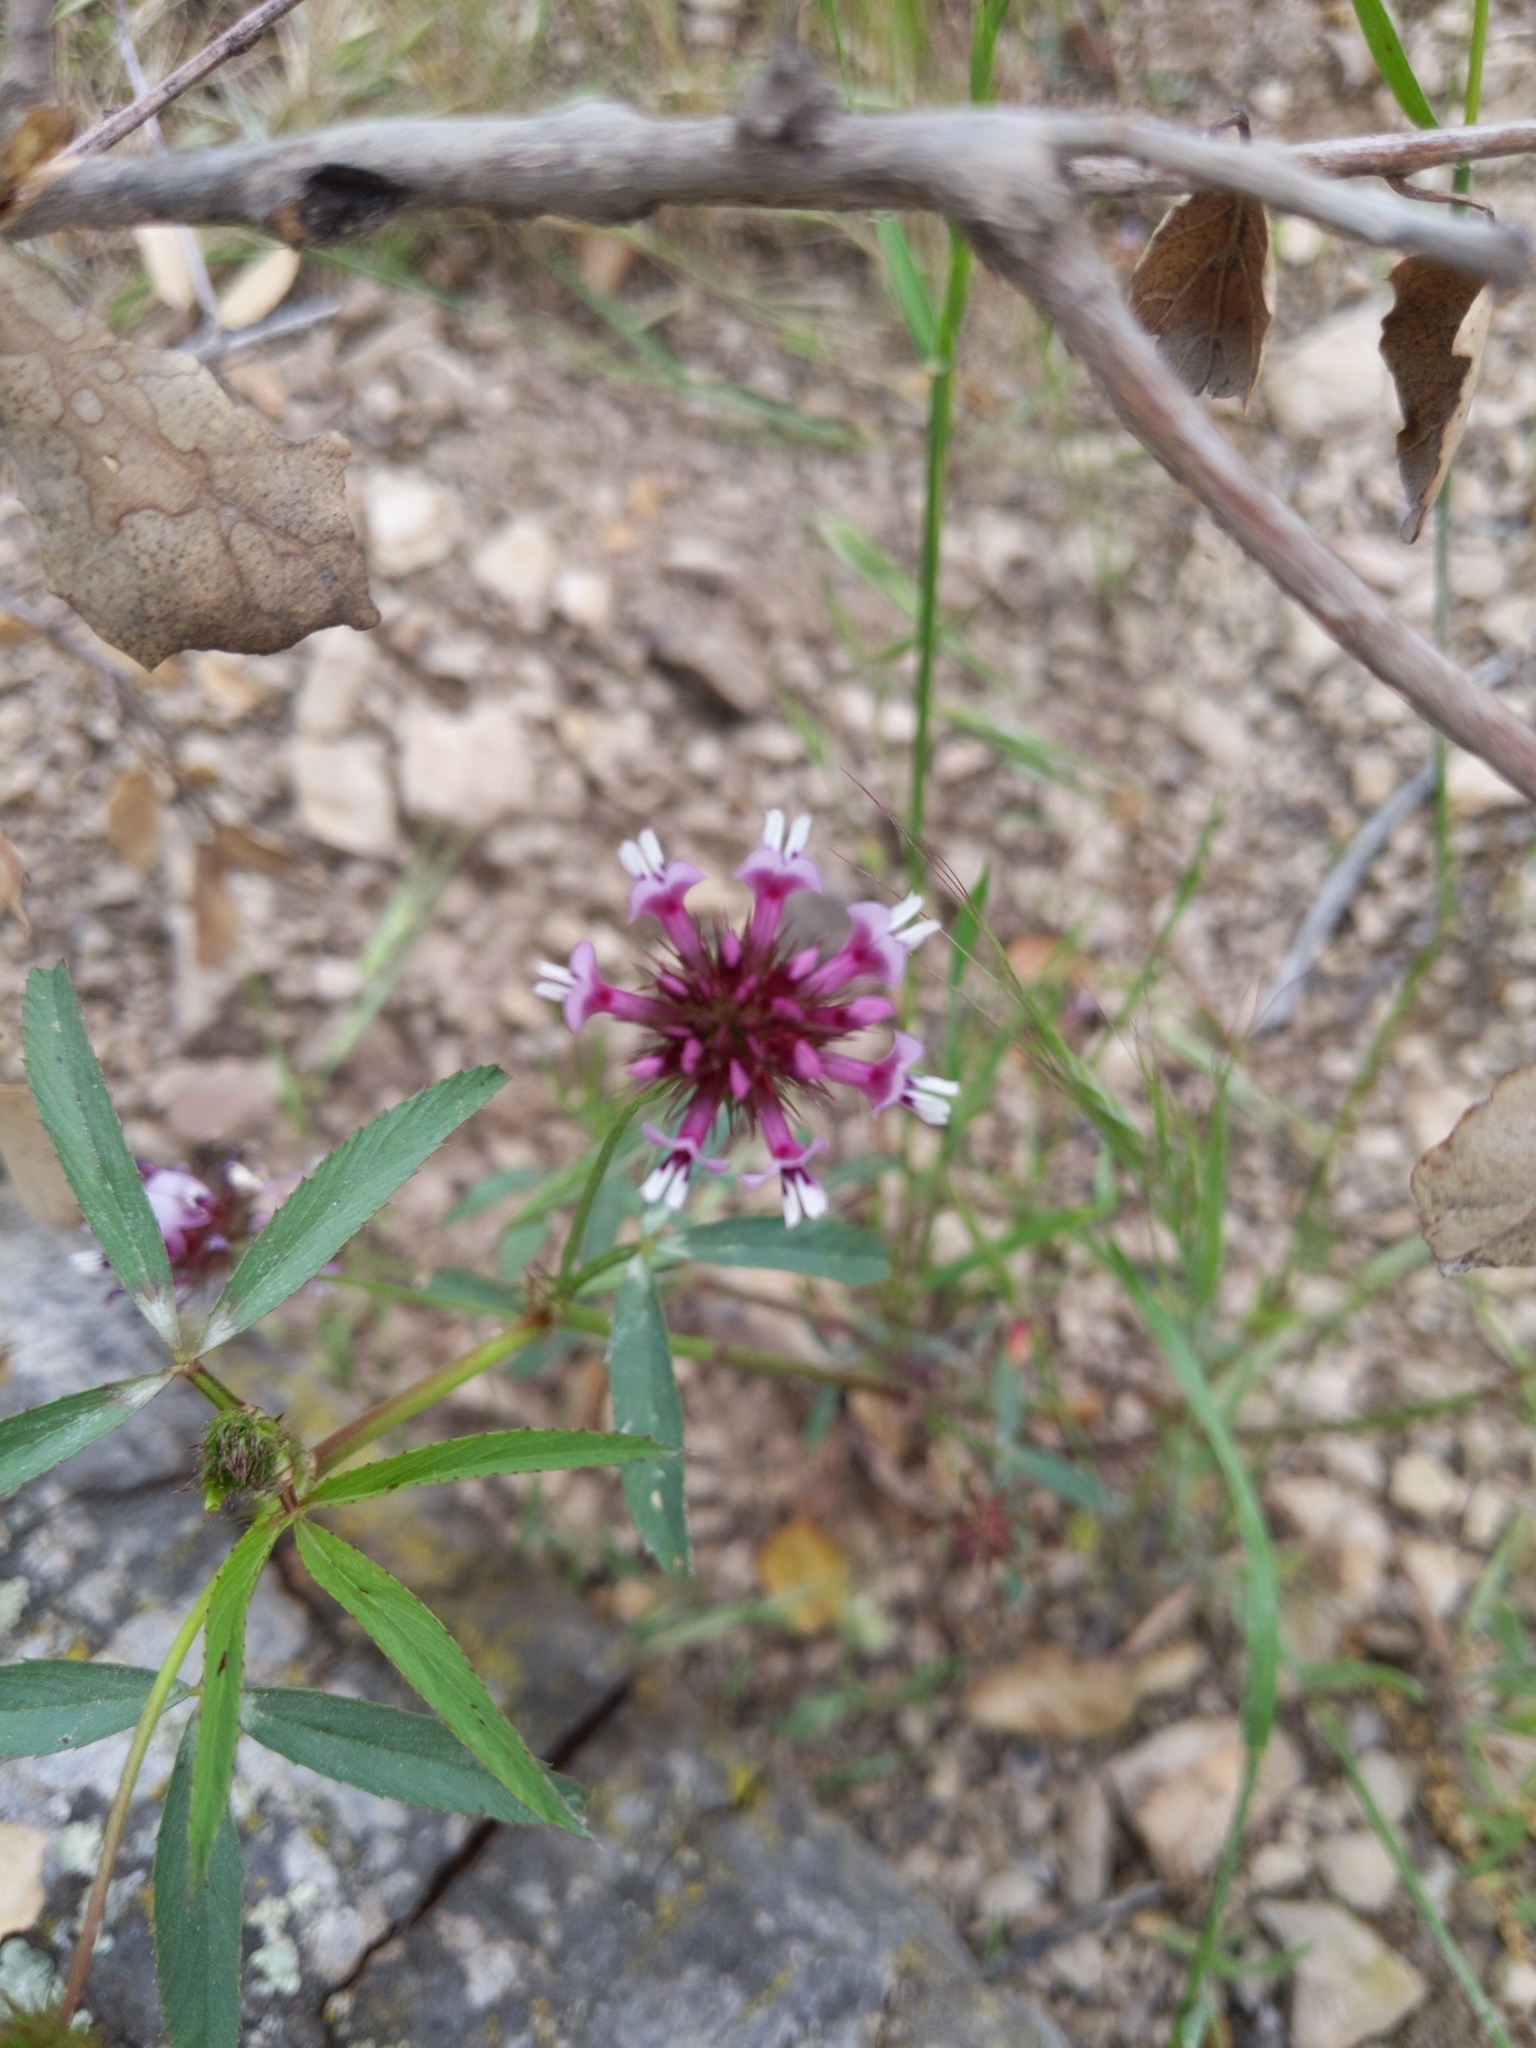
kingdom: Plantae
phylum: Tracheophyta
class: Magnoliopsida
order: Fabales
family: Fabaceae
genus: Trifolium
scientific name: Trifolium willdenovii
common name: Tomcat clover
